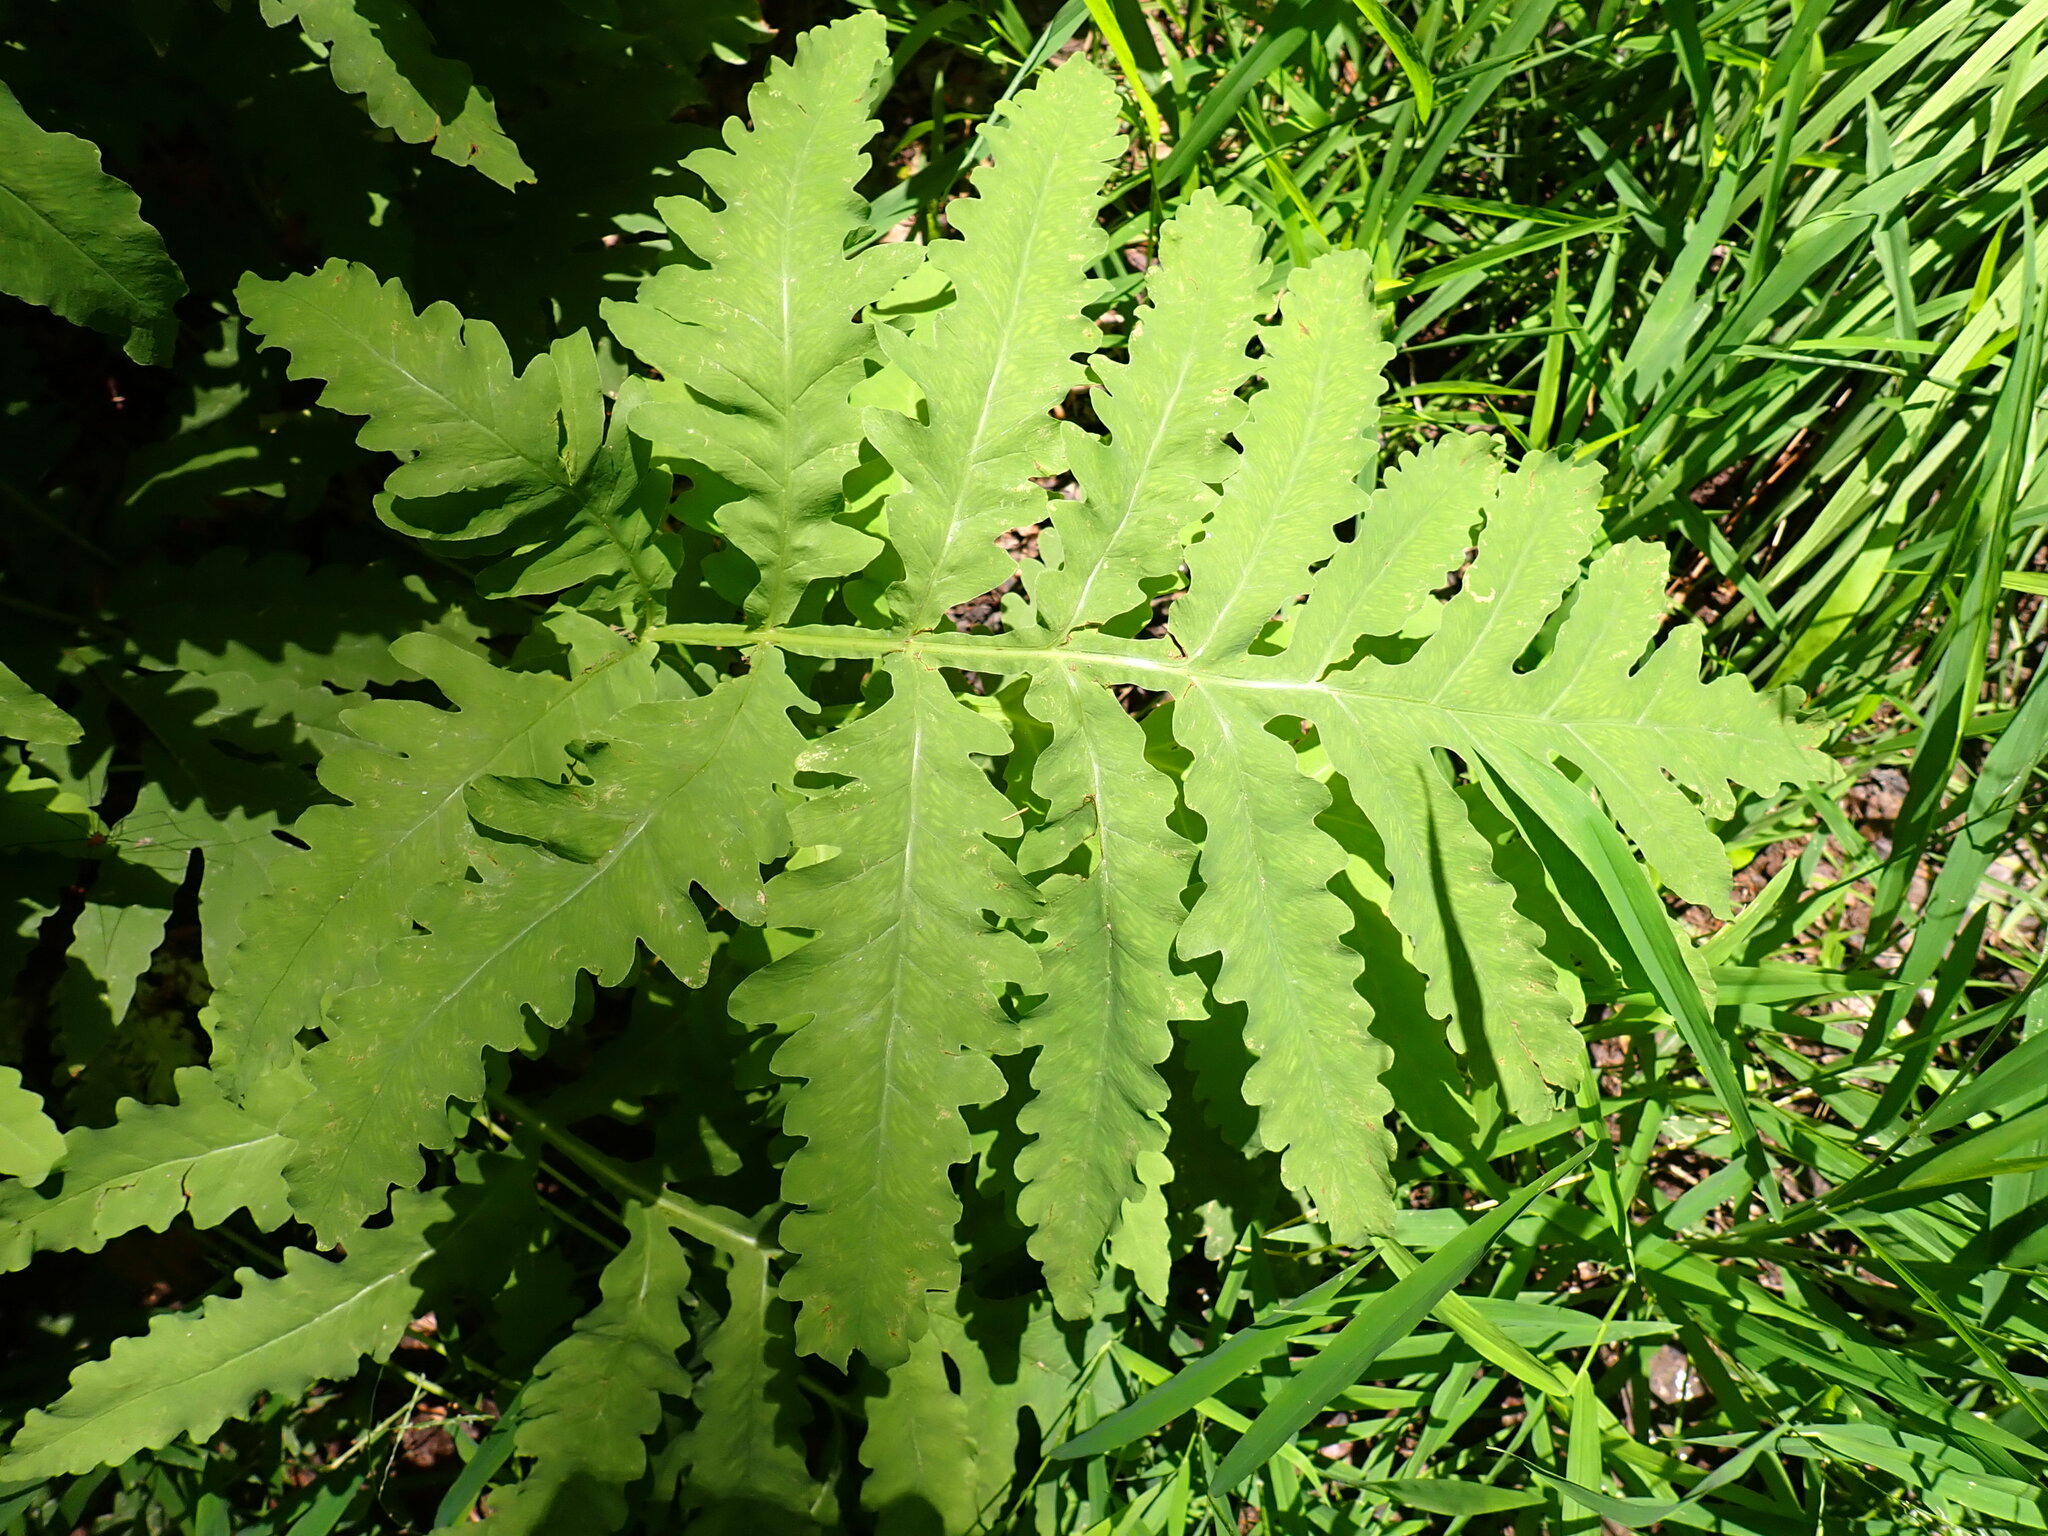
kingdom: Plantae
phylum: Tracheophyta
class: Polypodiopsida
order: Polypodiales
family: Onocleaceae
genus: Onoclea
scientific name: Onoclea sensibilis
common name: Sensitive fern
